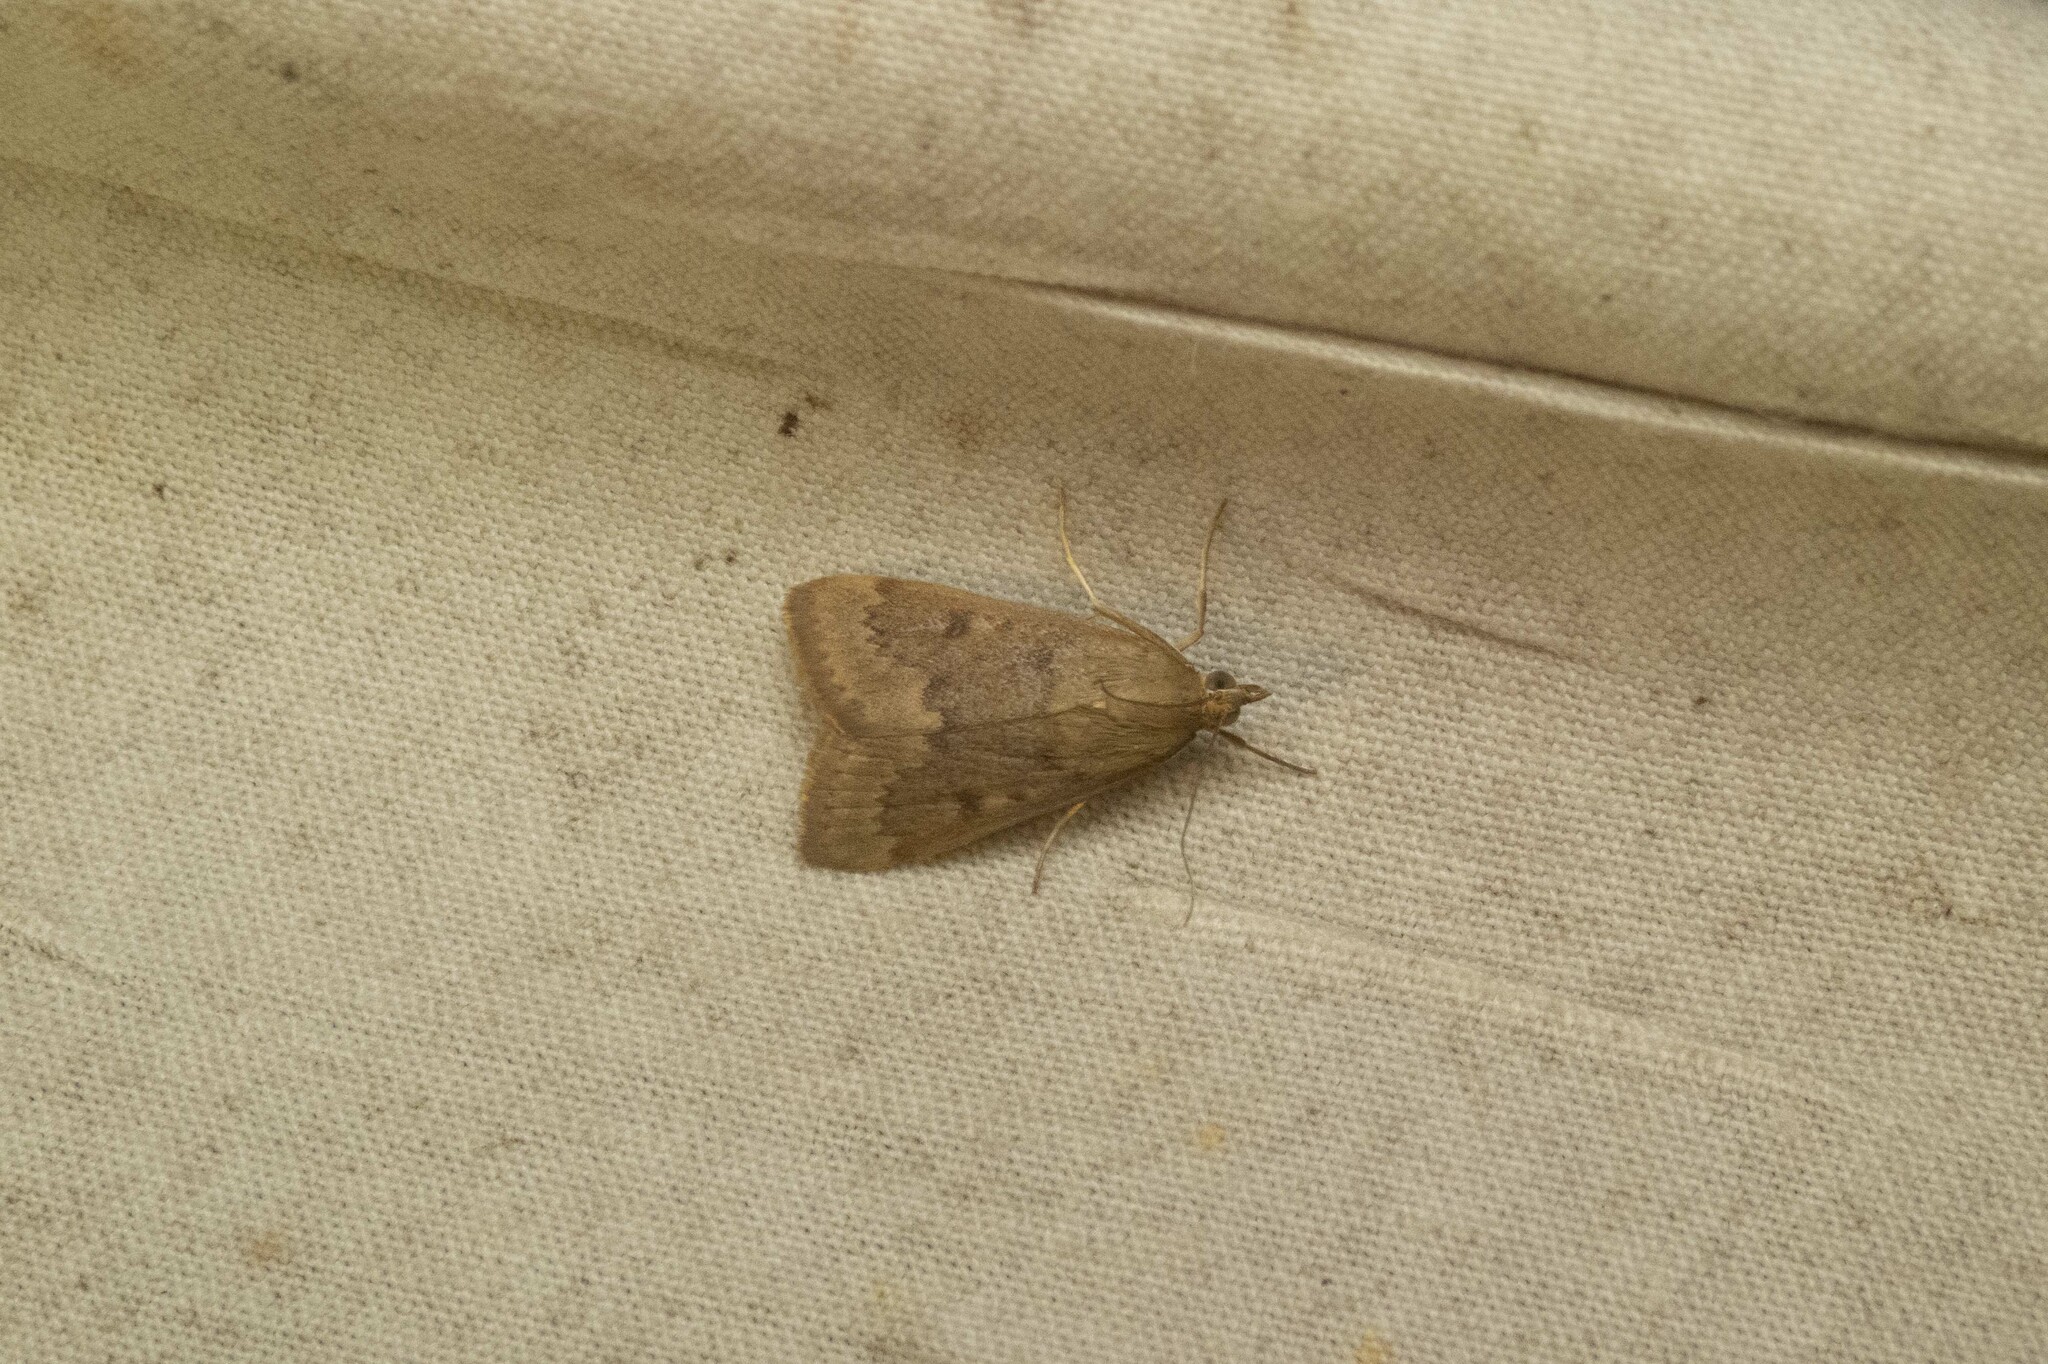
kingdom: Animalia
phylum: Arthropoda
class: Insecta
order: Lepidoptera
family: Crambidae
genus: Achyra
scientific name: Achyra rantalis
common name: Garden webworm
